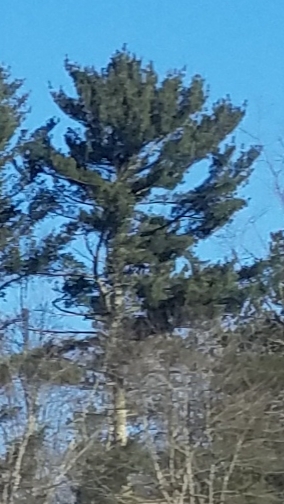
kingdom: Plantae
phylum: Tracheophyta
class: Pinopsida
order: Pinales
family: Pinaceae
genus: Pinus
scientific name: Pinus strobus
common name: Weymouth pine
